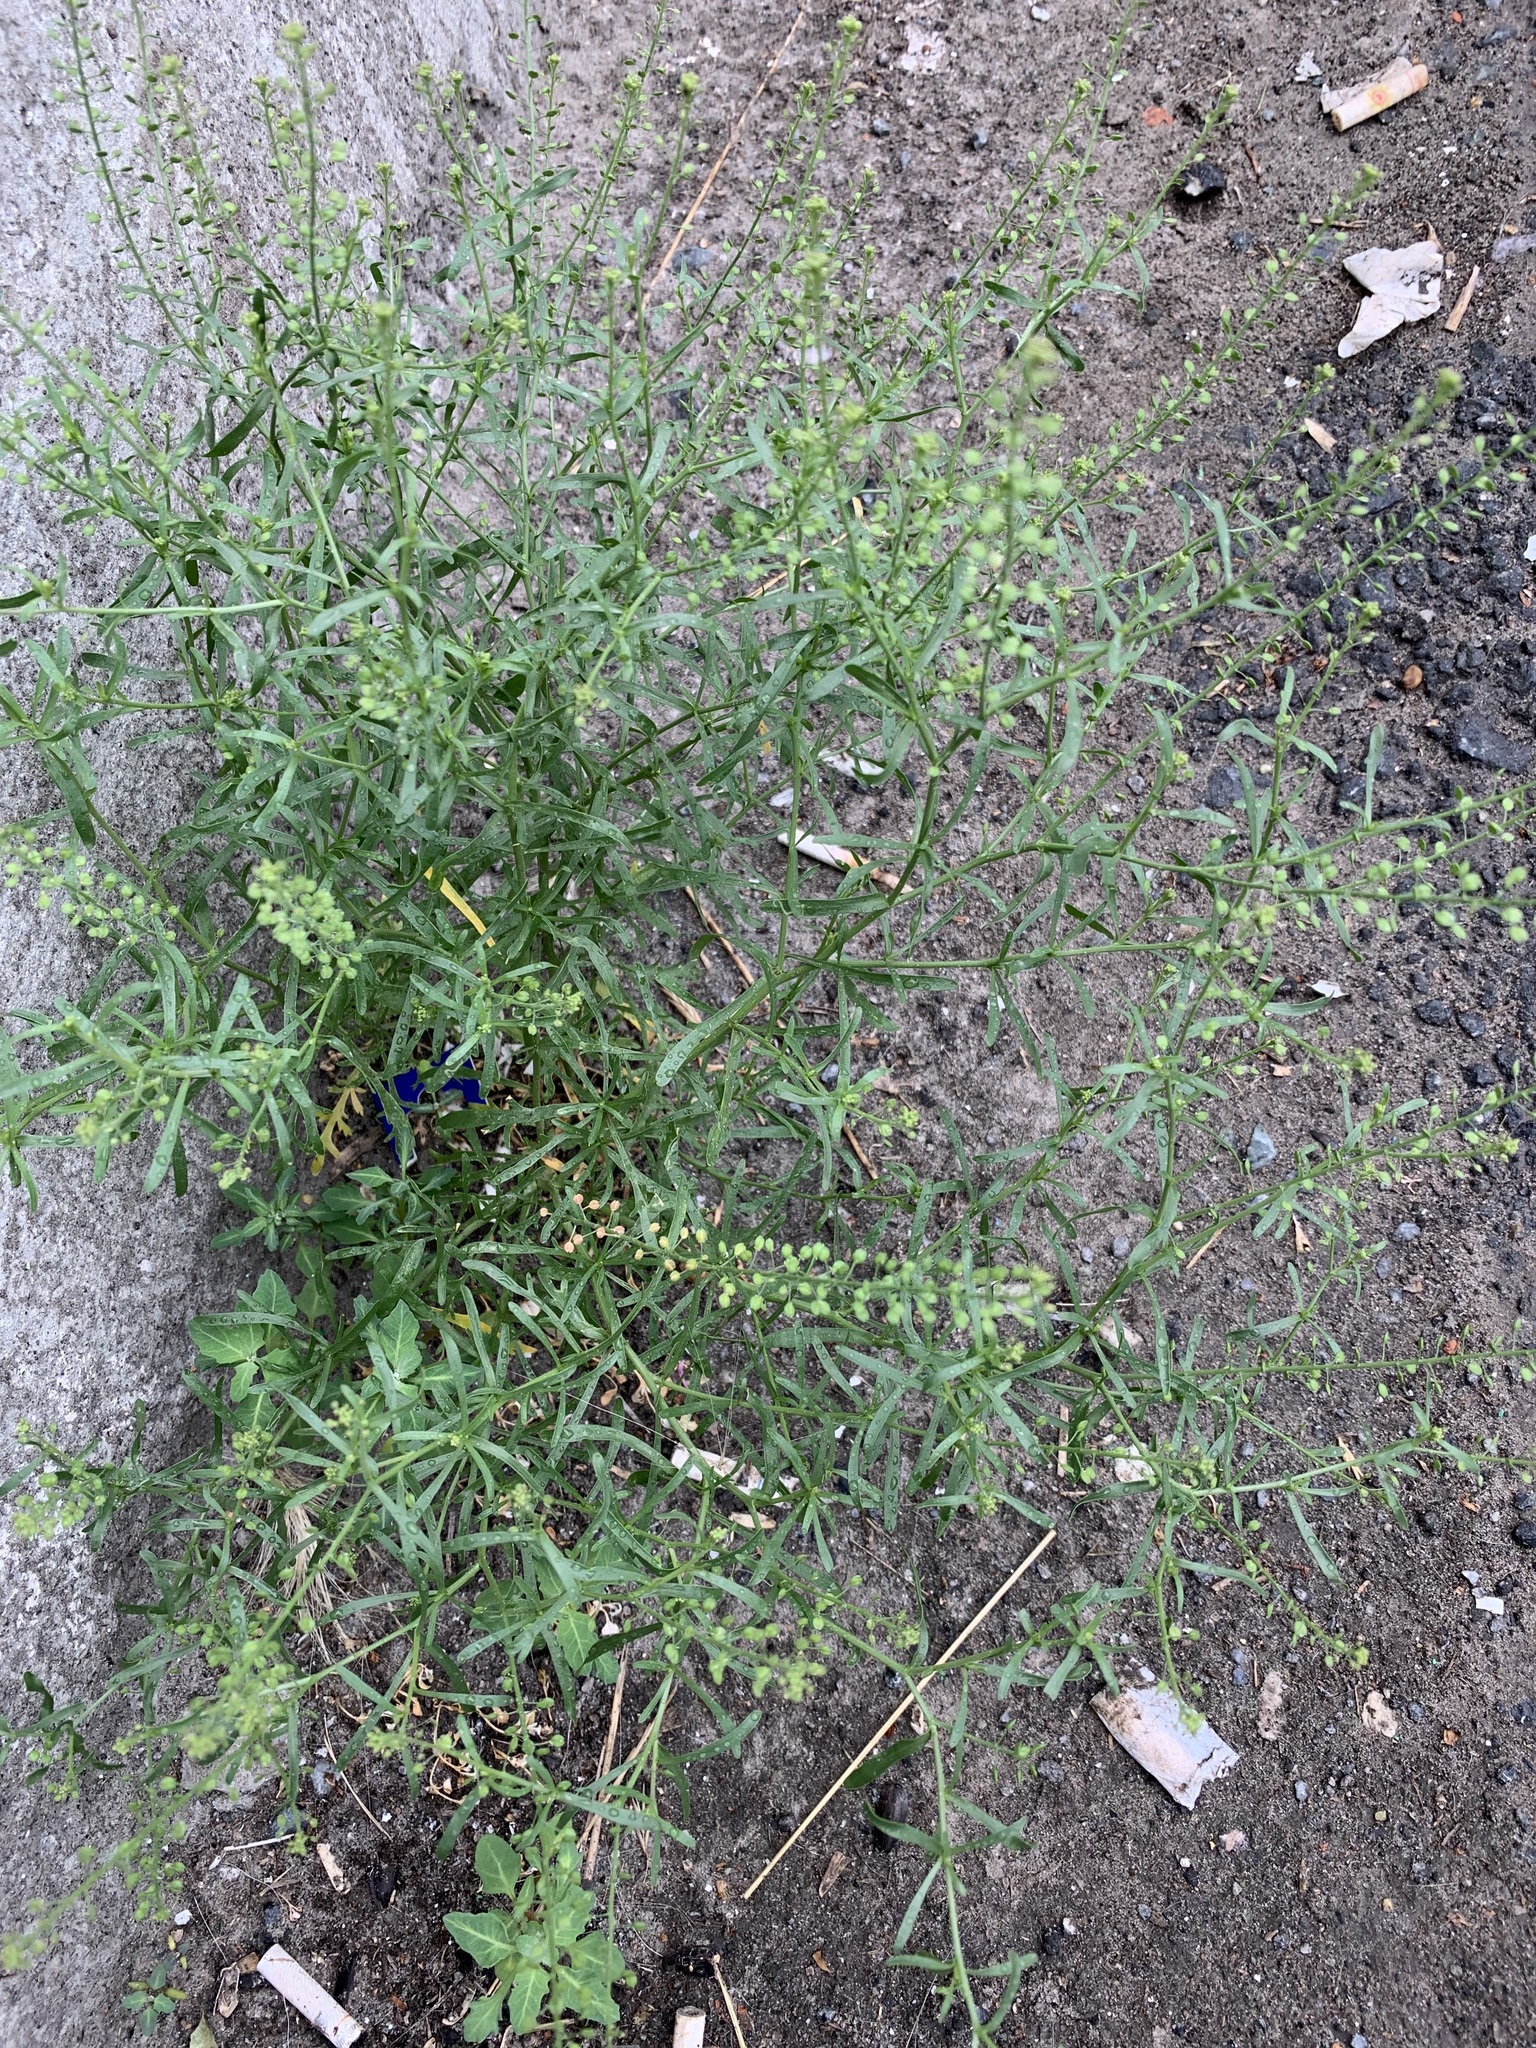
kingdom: Plantae
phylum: Tracheophyta
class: Magnoliopsida
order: Brassicales
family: Brassicaceae
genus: Lepidium
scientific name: Lepidium ruderale
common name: Narrow-leaved pepperwort
